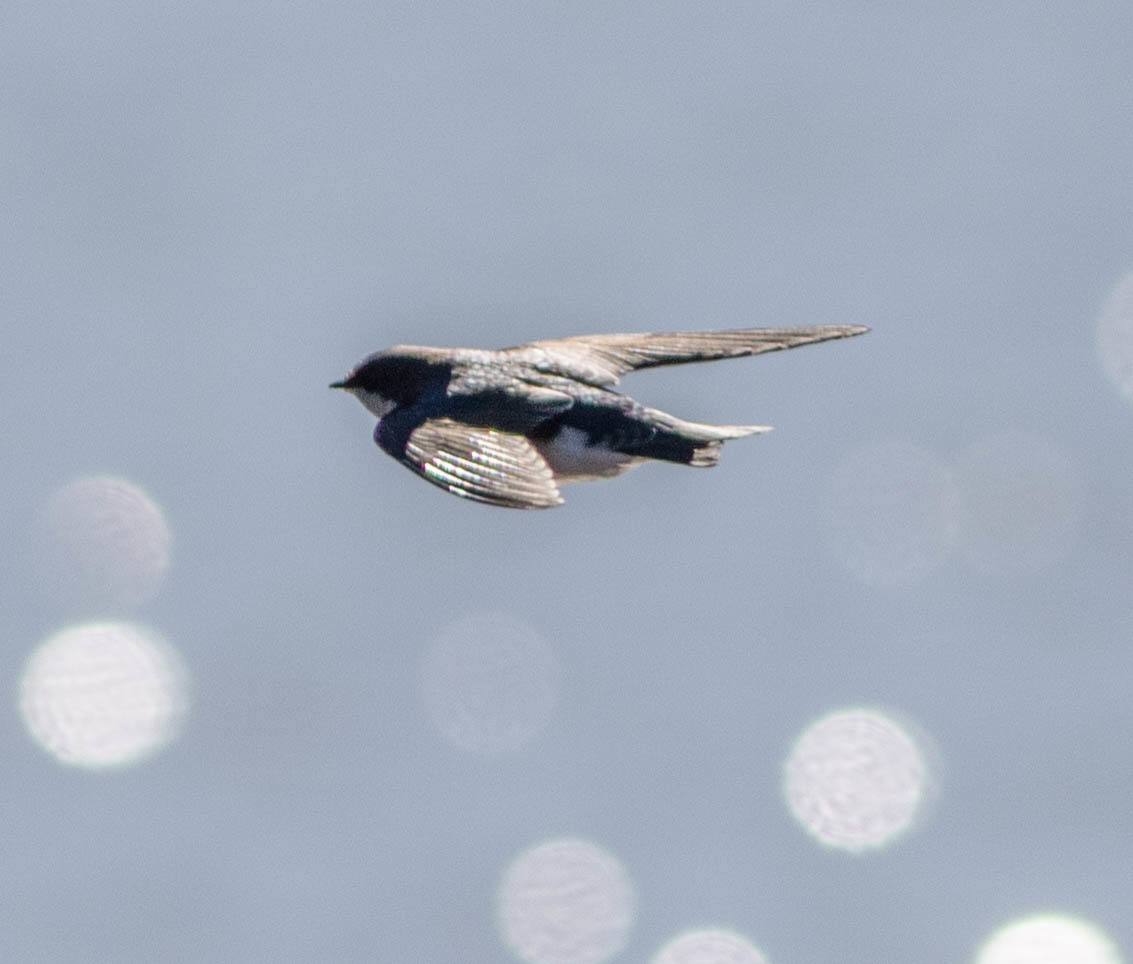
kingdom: Animalia
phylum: Chordata
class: Aves
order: Passeriformes
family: Hirundinidae
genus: Tachycineta
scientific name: Tachycineta bicolor
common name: Tree swallow
